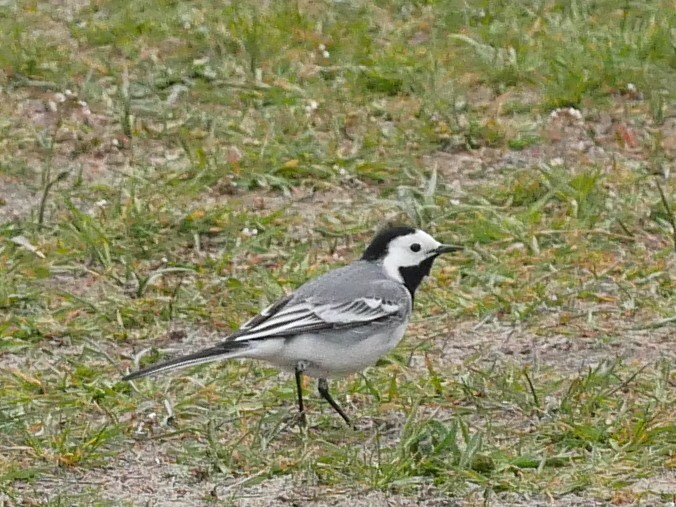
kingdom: Animalia
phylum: Chordata
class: Aves
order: Passeriformes
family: Motacillidae
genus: Motacilla
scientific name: Motacilla alba
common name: White wagtail
